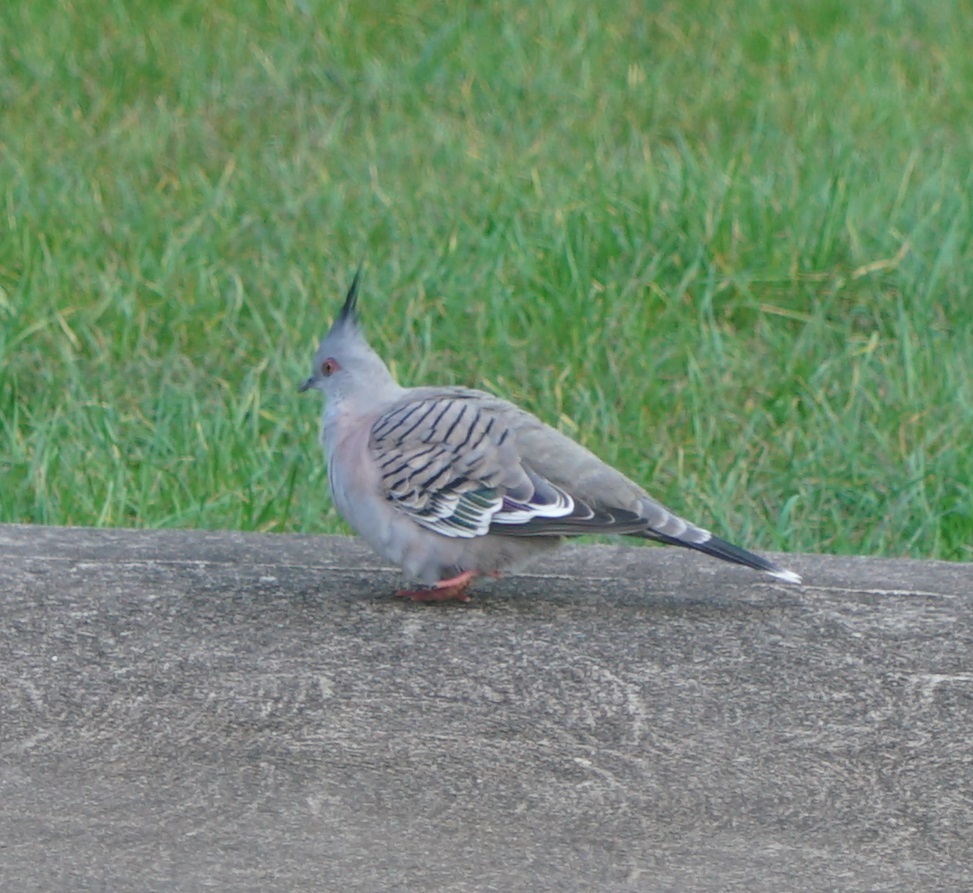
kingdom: Animalia
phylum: Chordata
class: Aves
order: Columbiformes
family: Columbidae
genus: Ocyphaps
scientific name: Ocyphaps lophotes
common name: Crested pigeon
